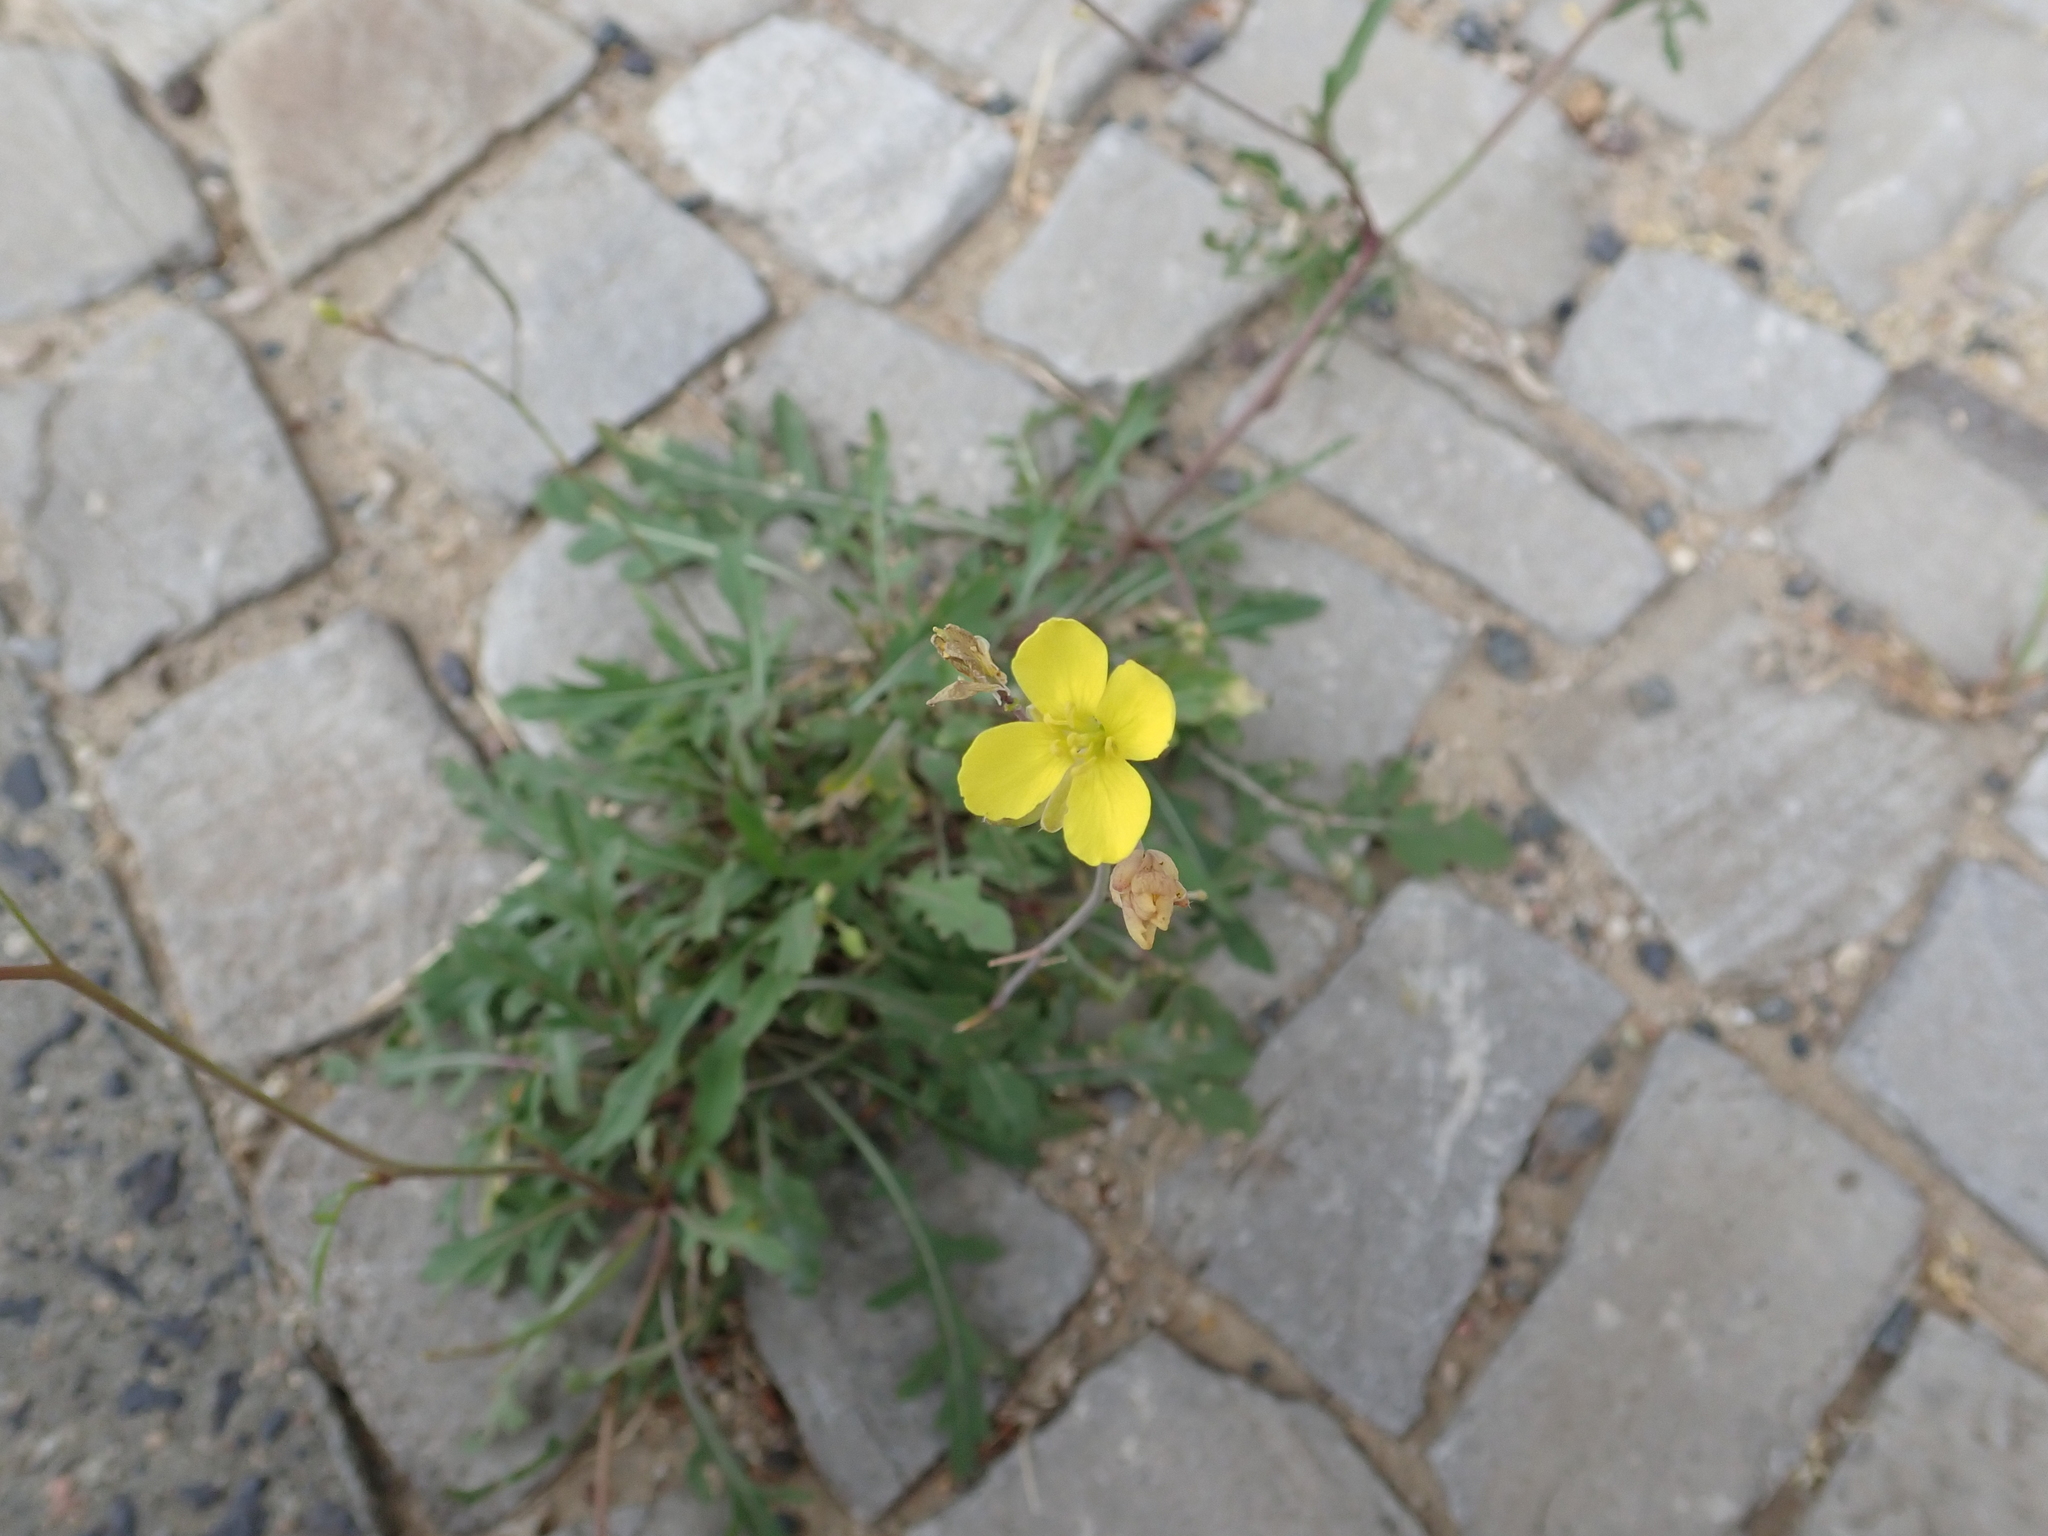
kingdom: Plantae
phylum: Tracheophyta
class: Magnoliopsida
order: Brassicales
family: Brassicaceae
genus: Diplotaxis
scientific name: Diplotaxis tenuifolia
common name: Perennial wall-rocket
